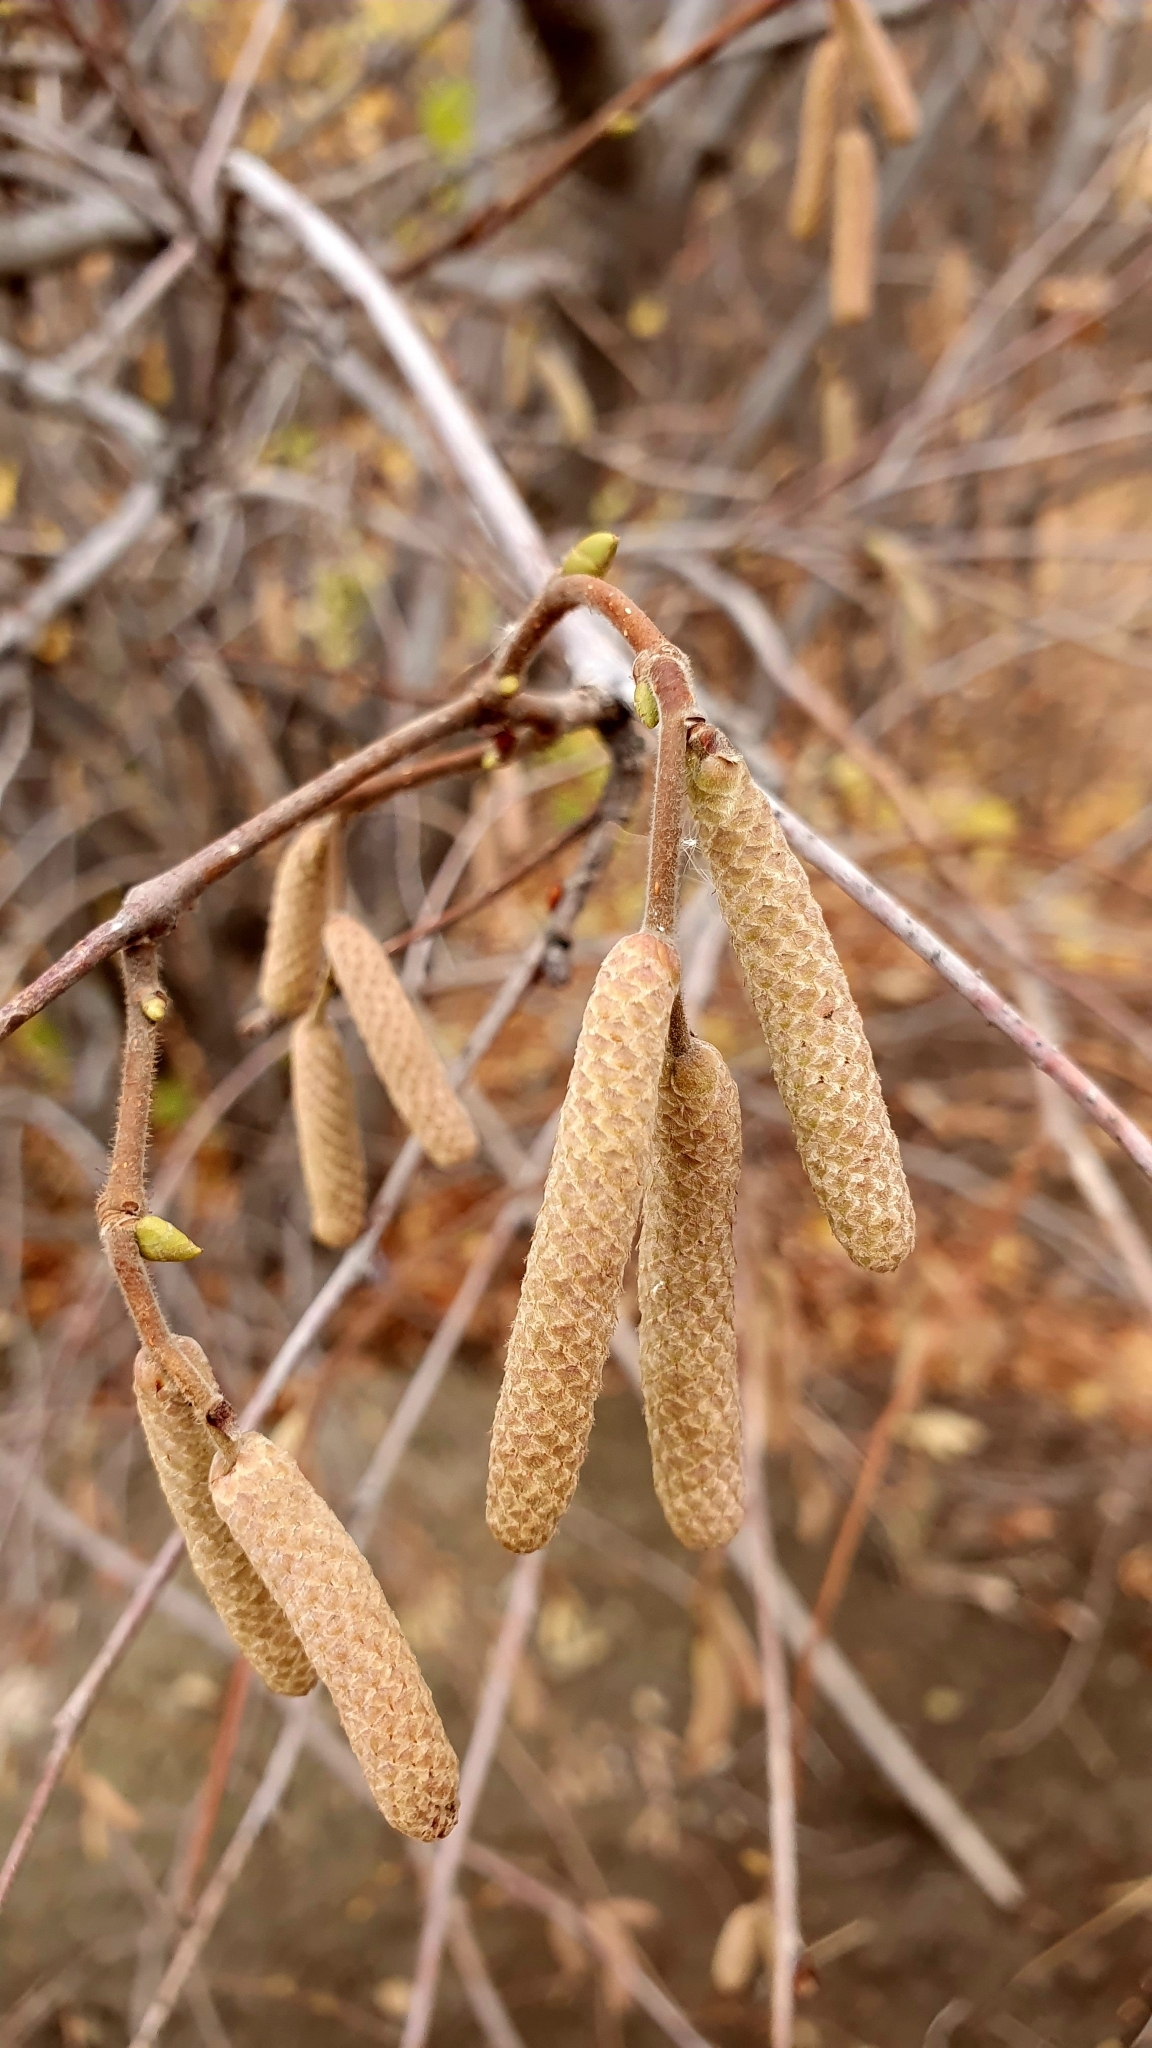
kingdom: Plantae
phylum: Tracheophyta
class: Magnoliopsida
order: Fagales
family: Betulaceae
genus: Corylus
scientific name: Corylus avellana
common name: European hazel
